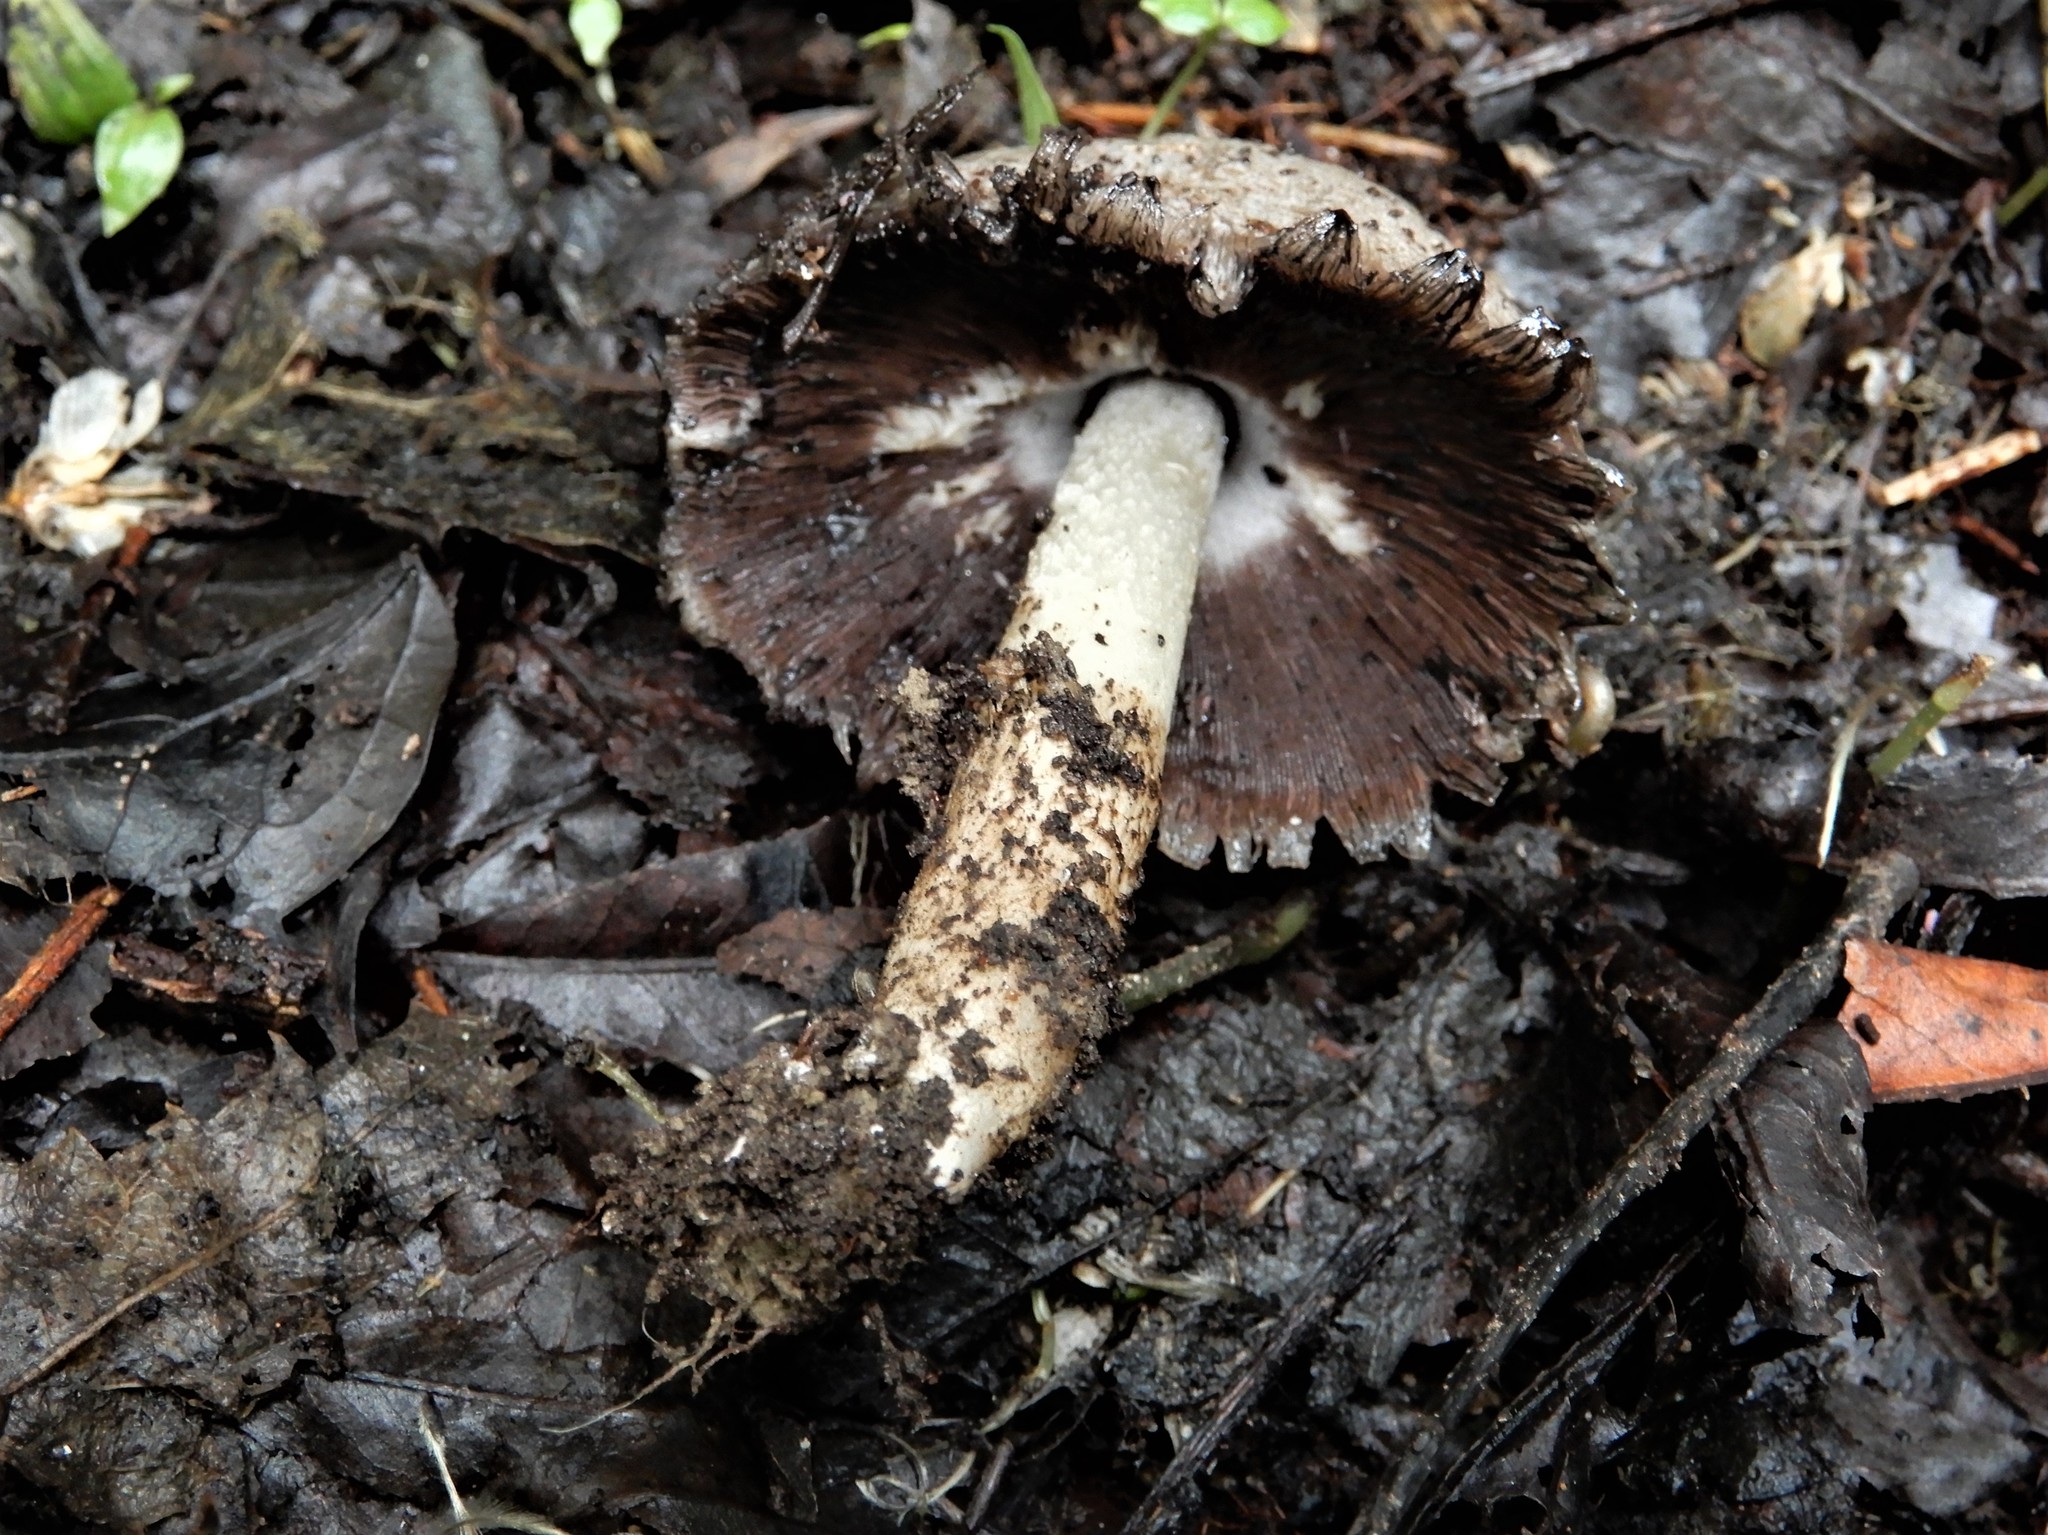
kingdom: Fungi
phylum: Basidiomycota
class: Agaricomycetes
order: Agaricales
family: Psathyrellaceae
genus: Coprinopsis
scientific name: Coprinopsis atramentaria
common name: Common ink-cap
